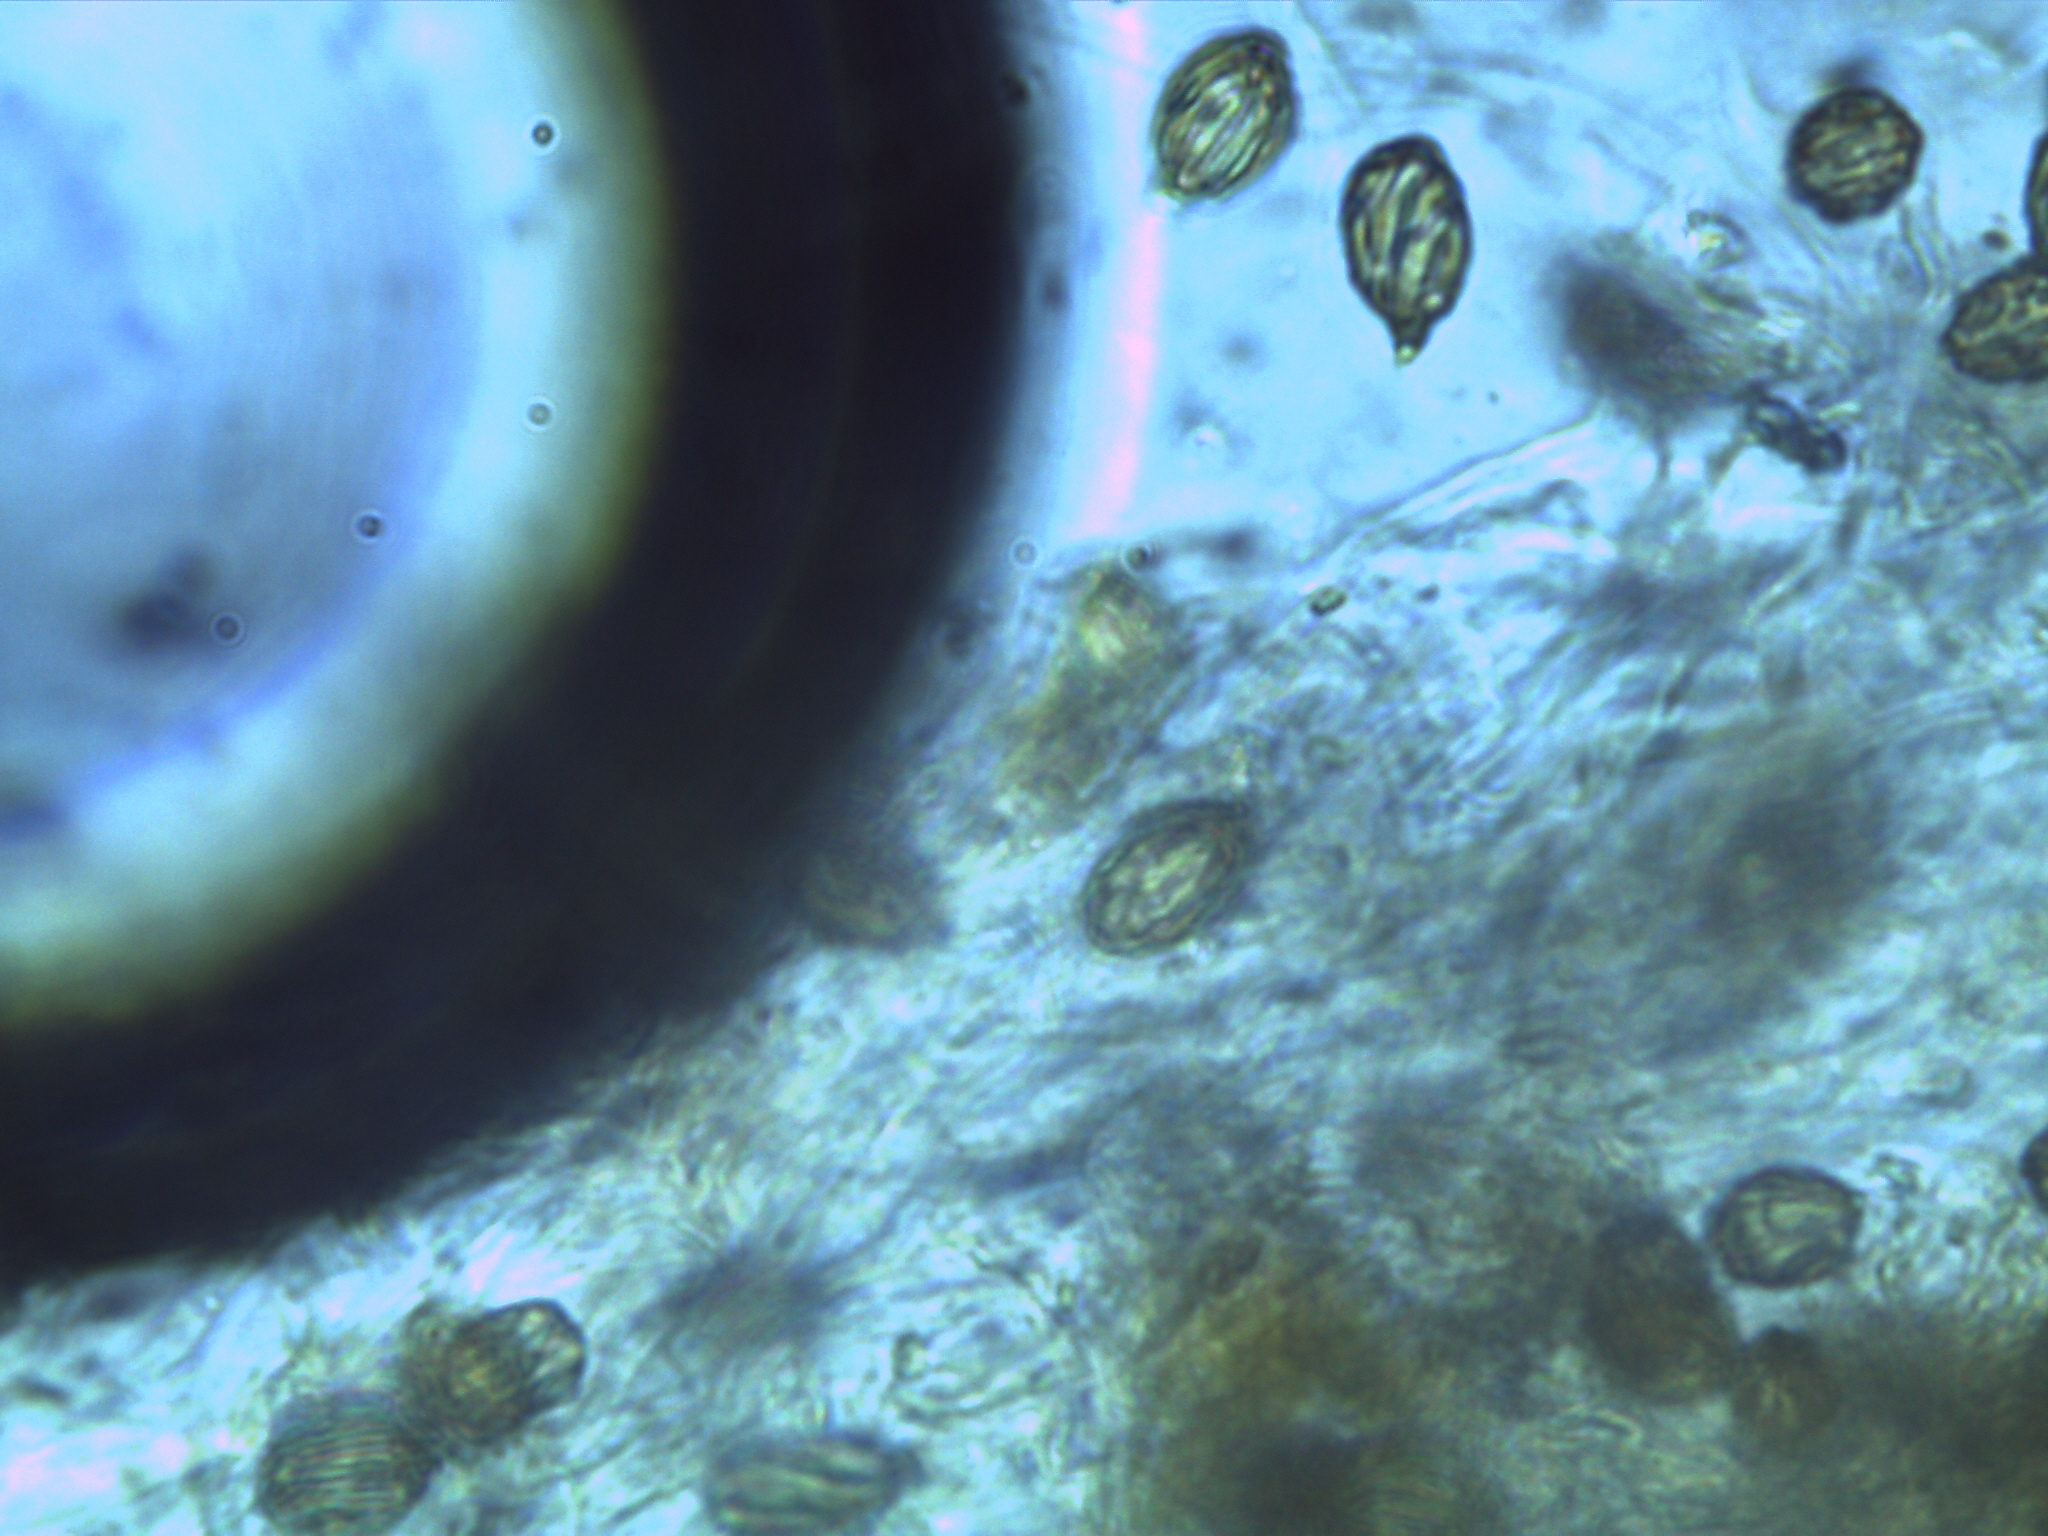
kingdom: Fungi
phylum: Basidiomycota
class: Agaricomycetes
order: Gomphales
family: Gomphaceae
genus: Gautieria
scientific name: Gautieria
